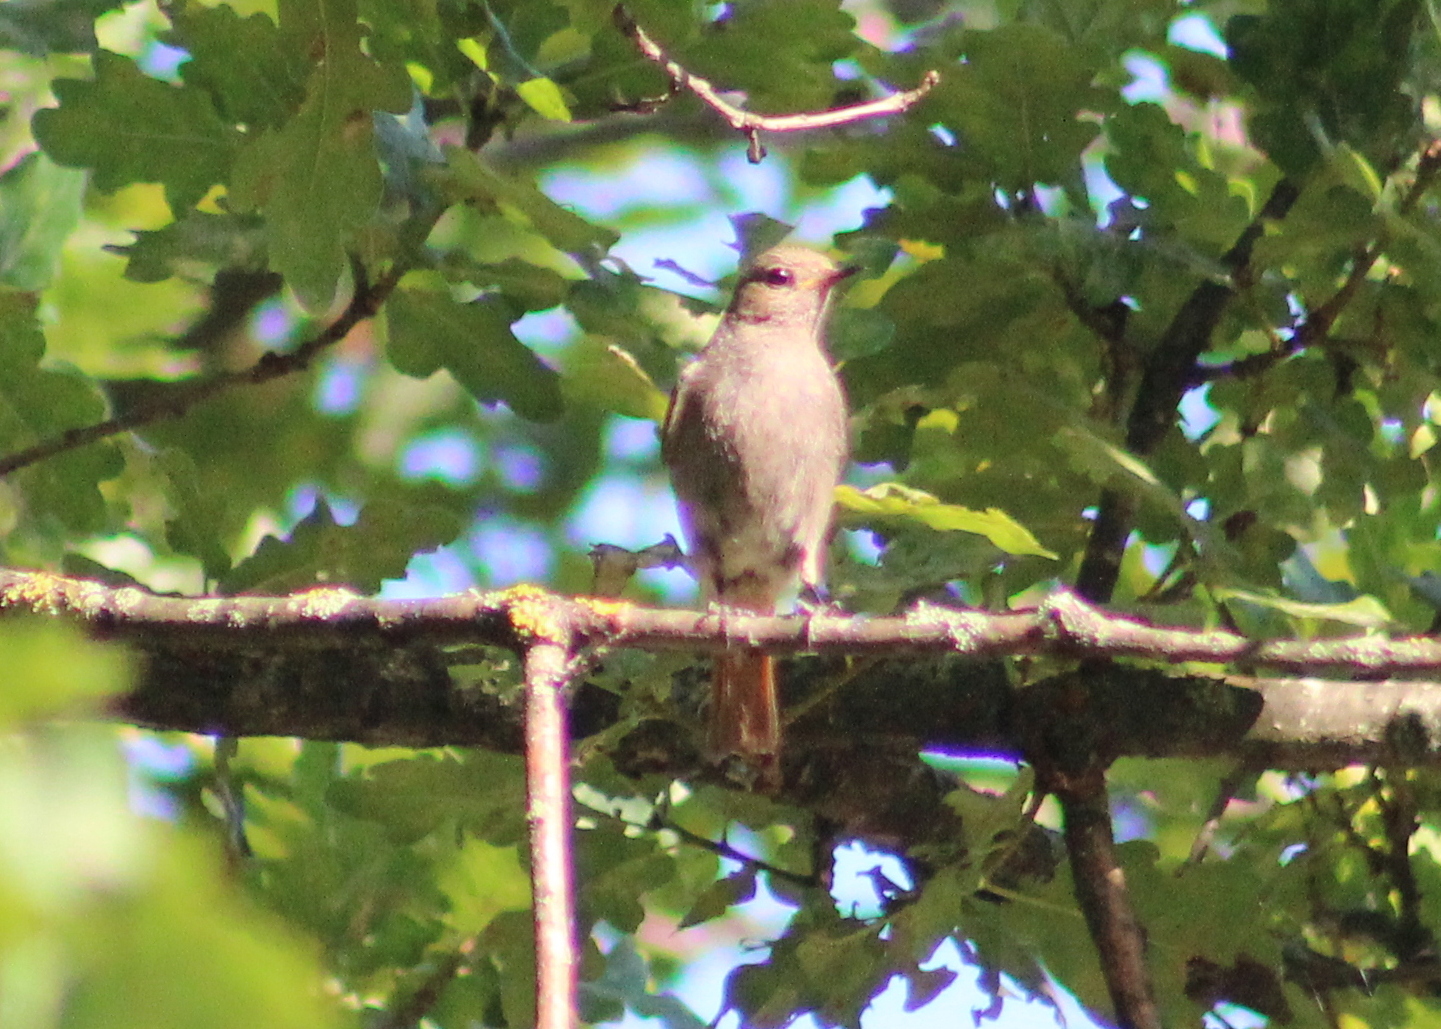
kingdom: Animalia
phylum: Chordata
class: Aves
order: Passeriformes
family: Muscicapidae
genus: Phoenicurus
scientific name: Phoenicurus ochruros
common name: Black redstart
